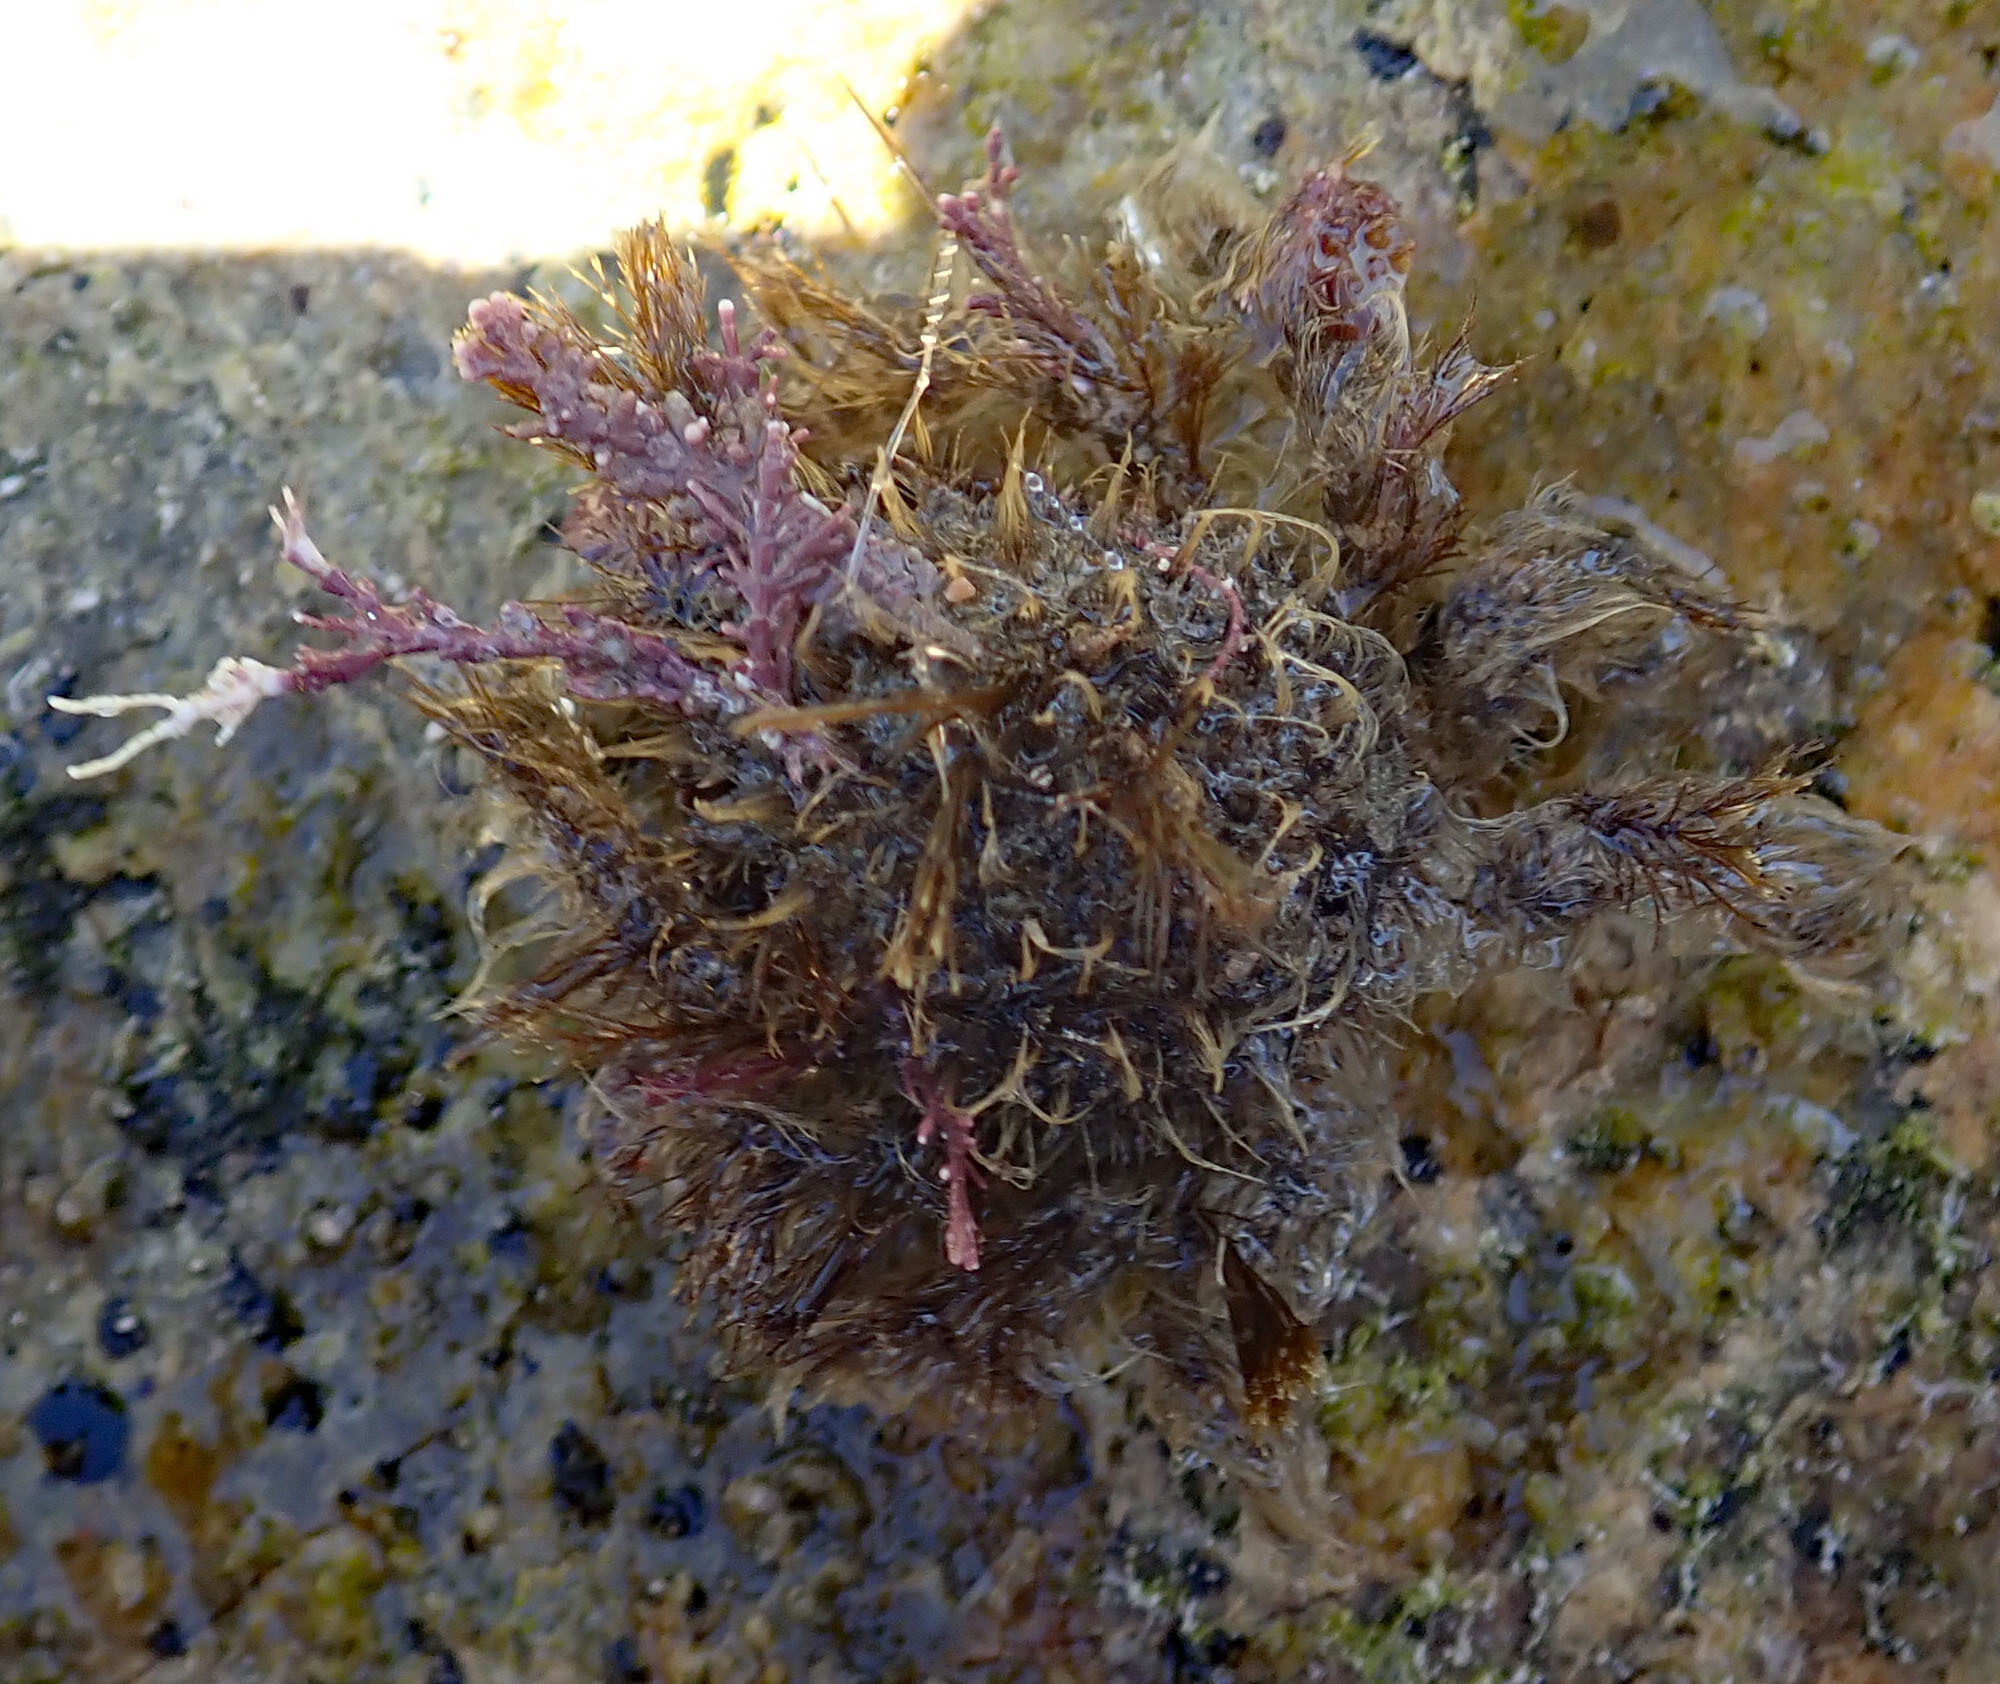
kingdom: Animalia
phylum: Arthropoda
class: Malacostraca
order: Decapoda
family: Majidae
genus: Notomithrax
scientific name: Notomithrax ursus
